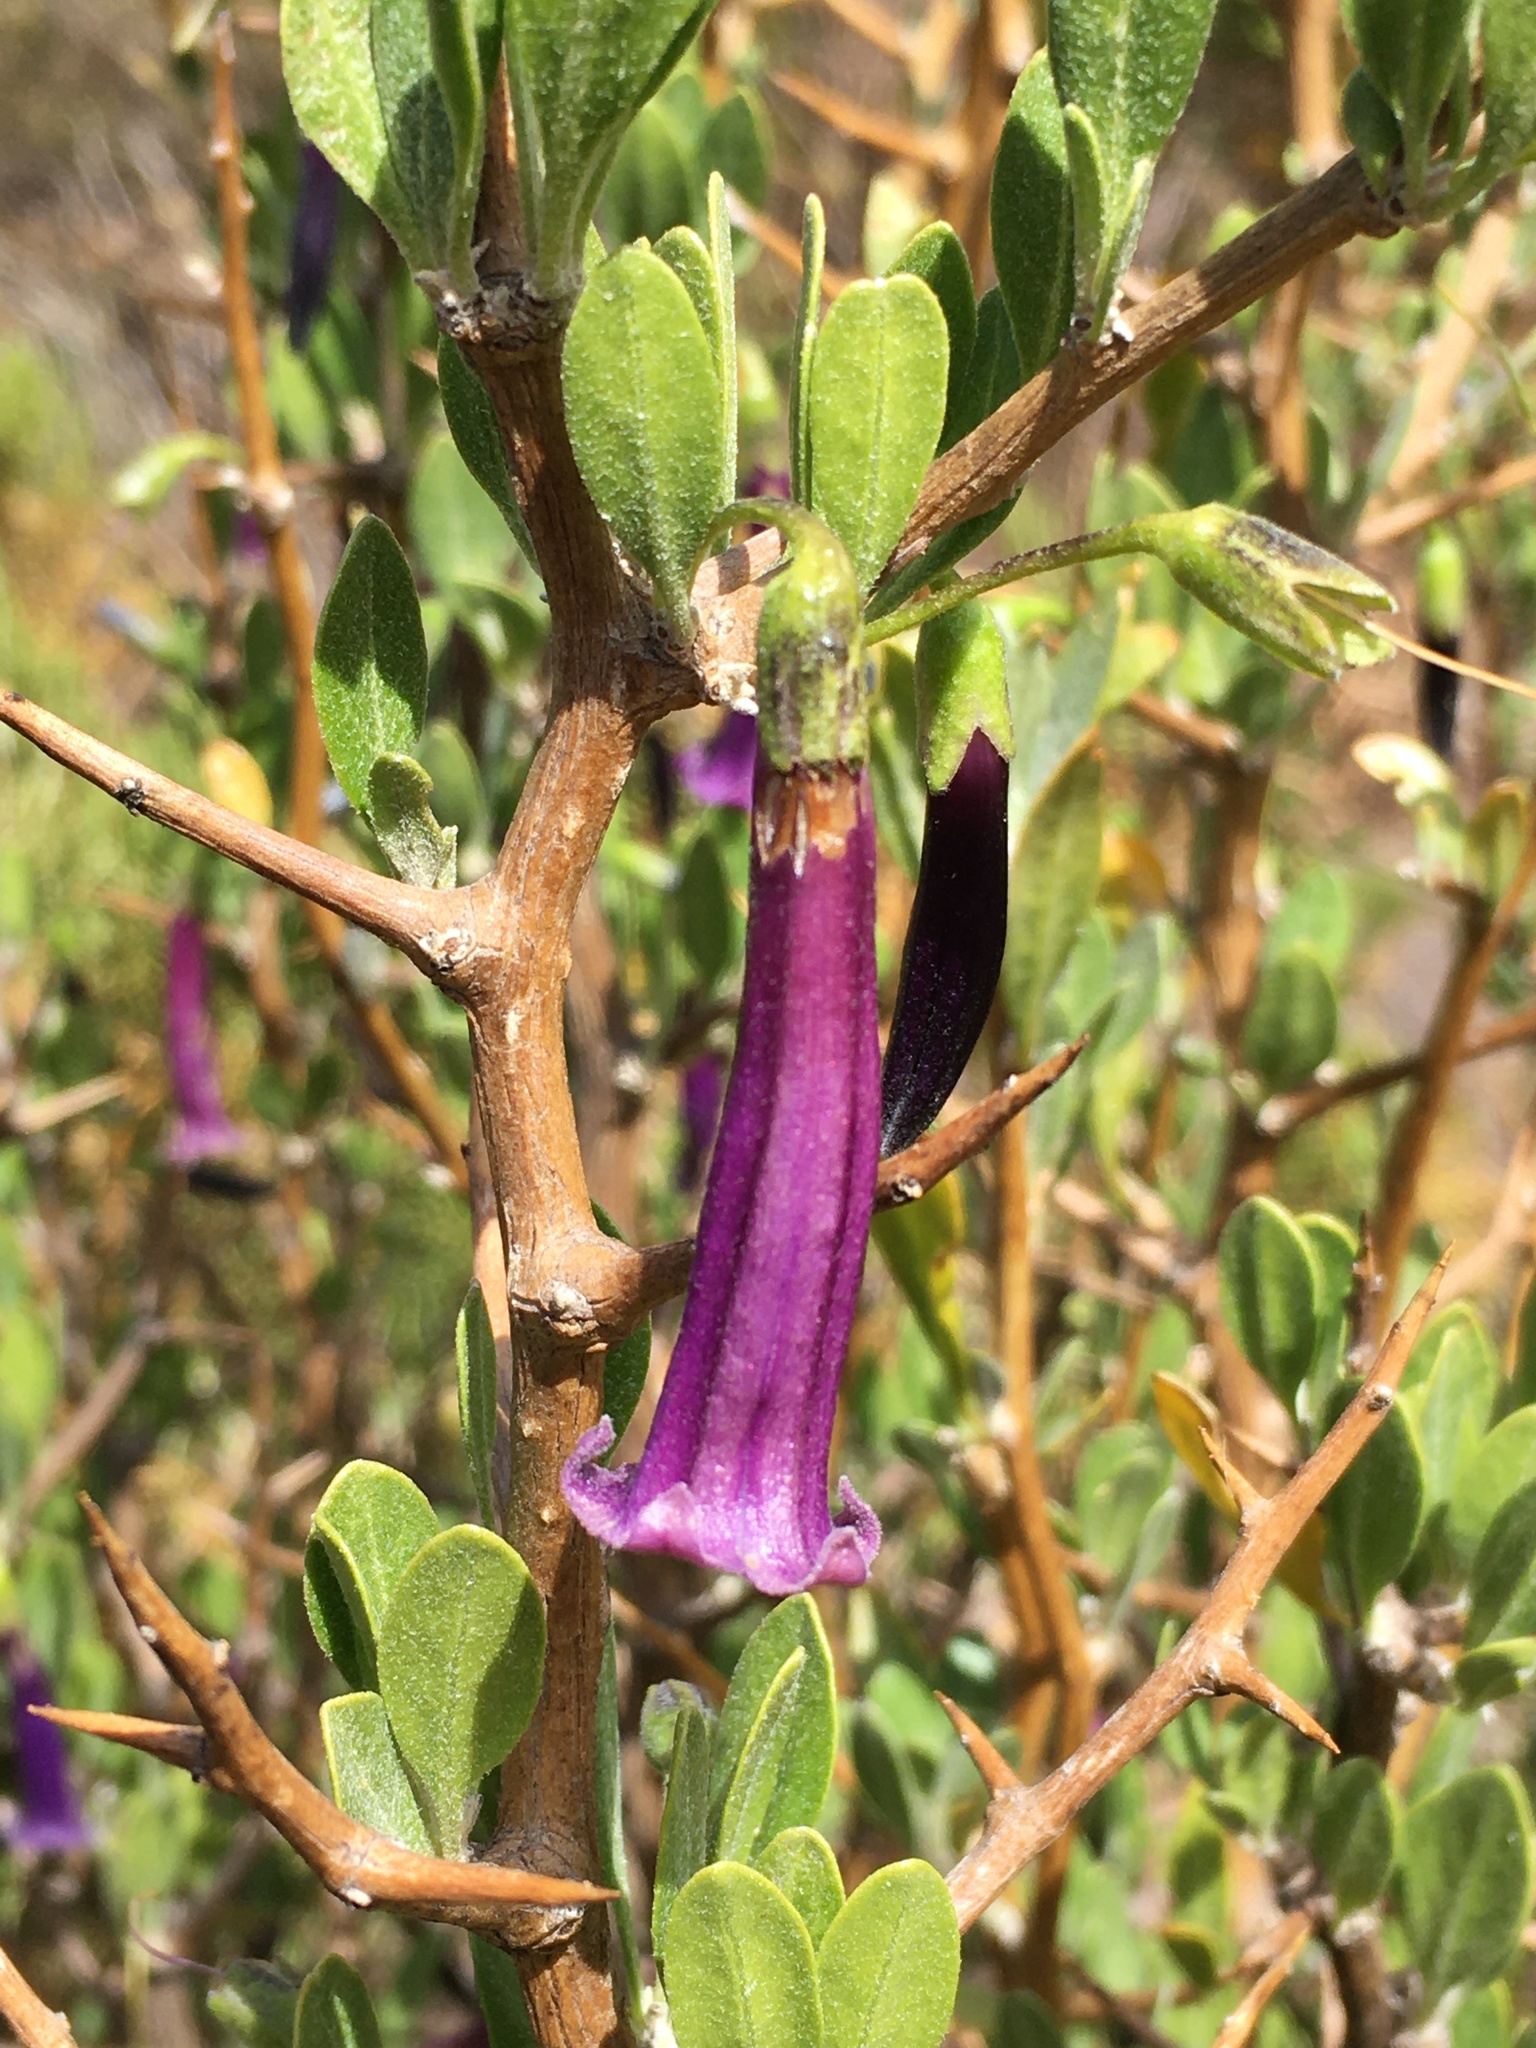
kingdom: Plantae
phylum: Tracheophyta
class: Magnoliopsida
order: Solanales
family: Solanaceae
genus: Dunalia
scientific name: Dunalia spinosa
